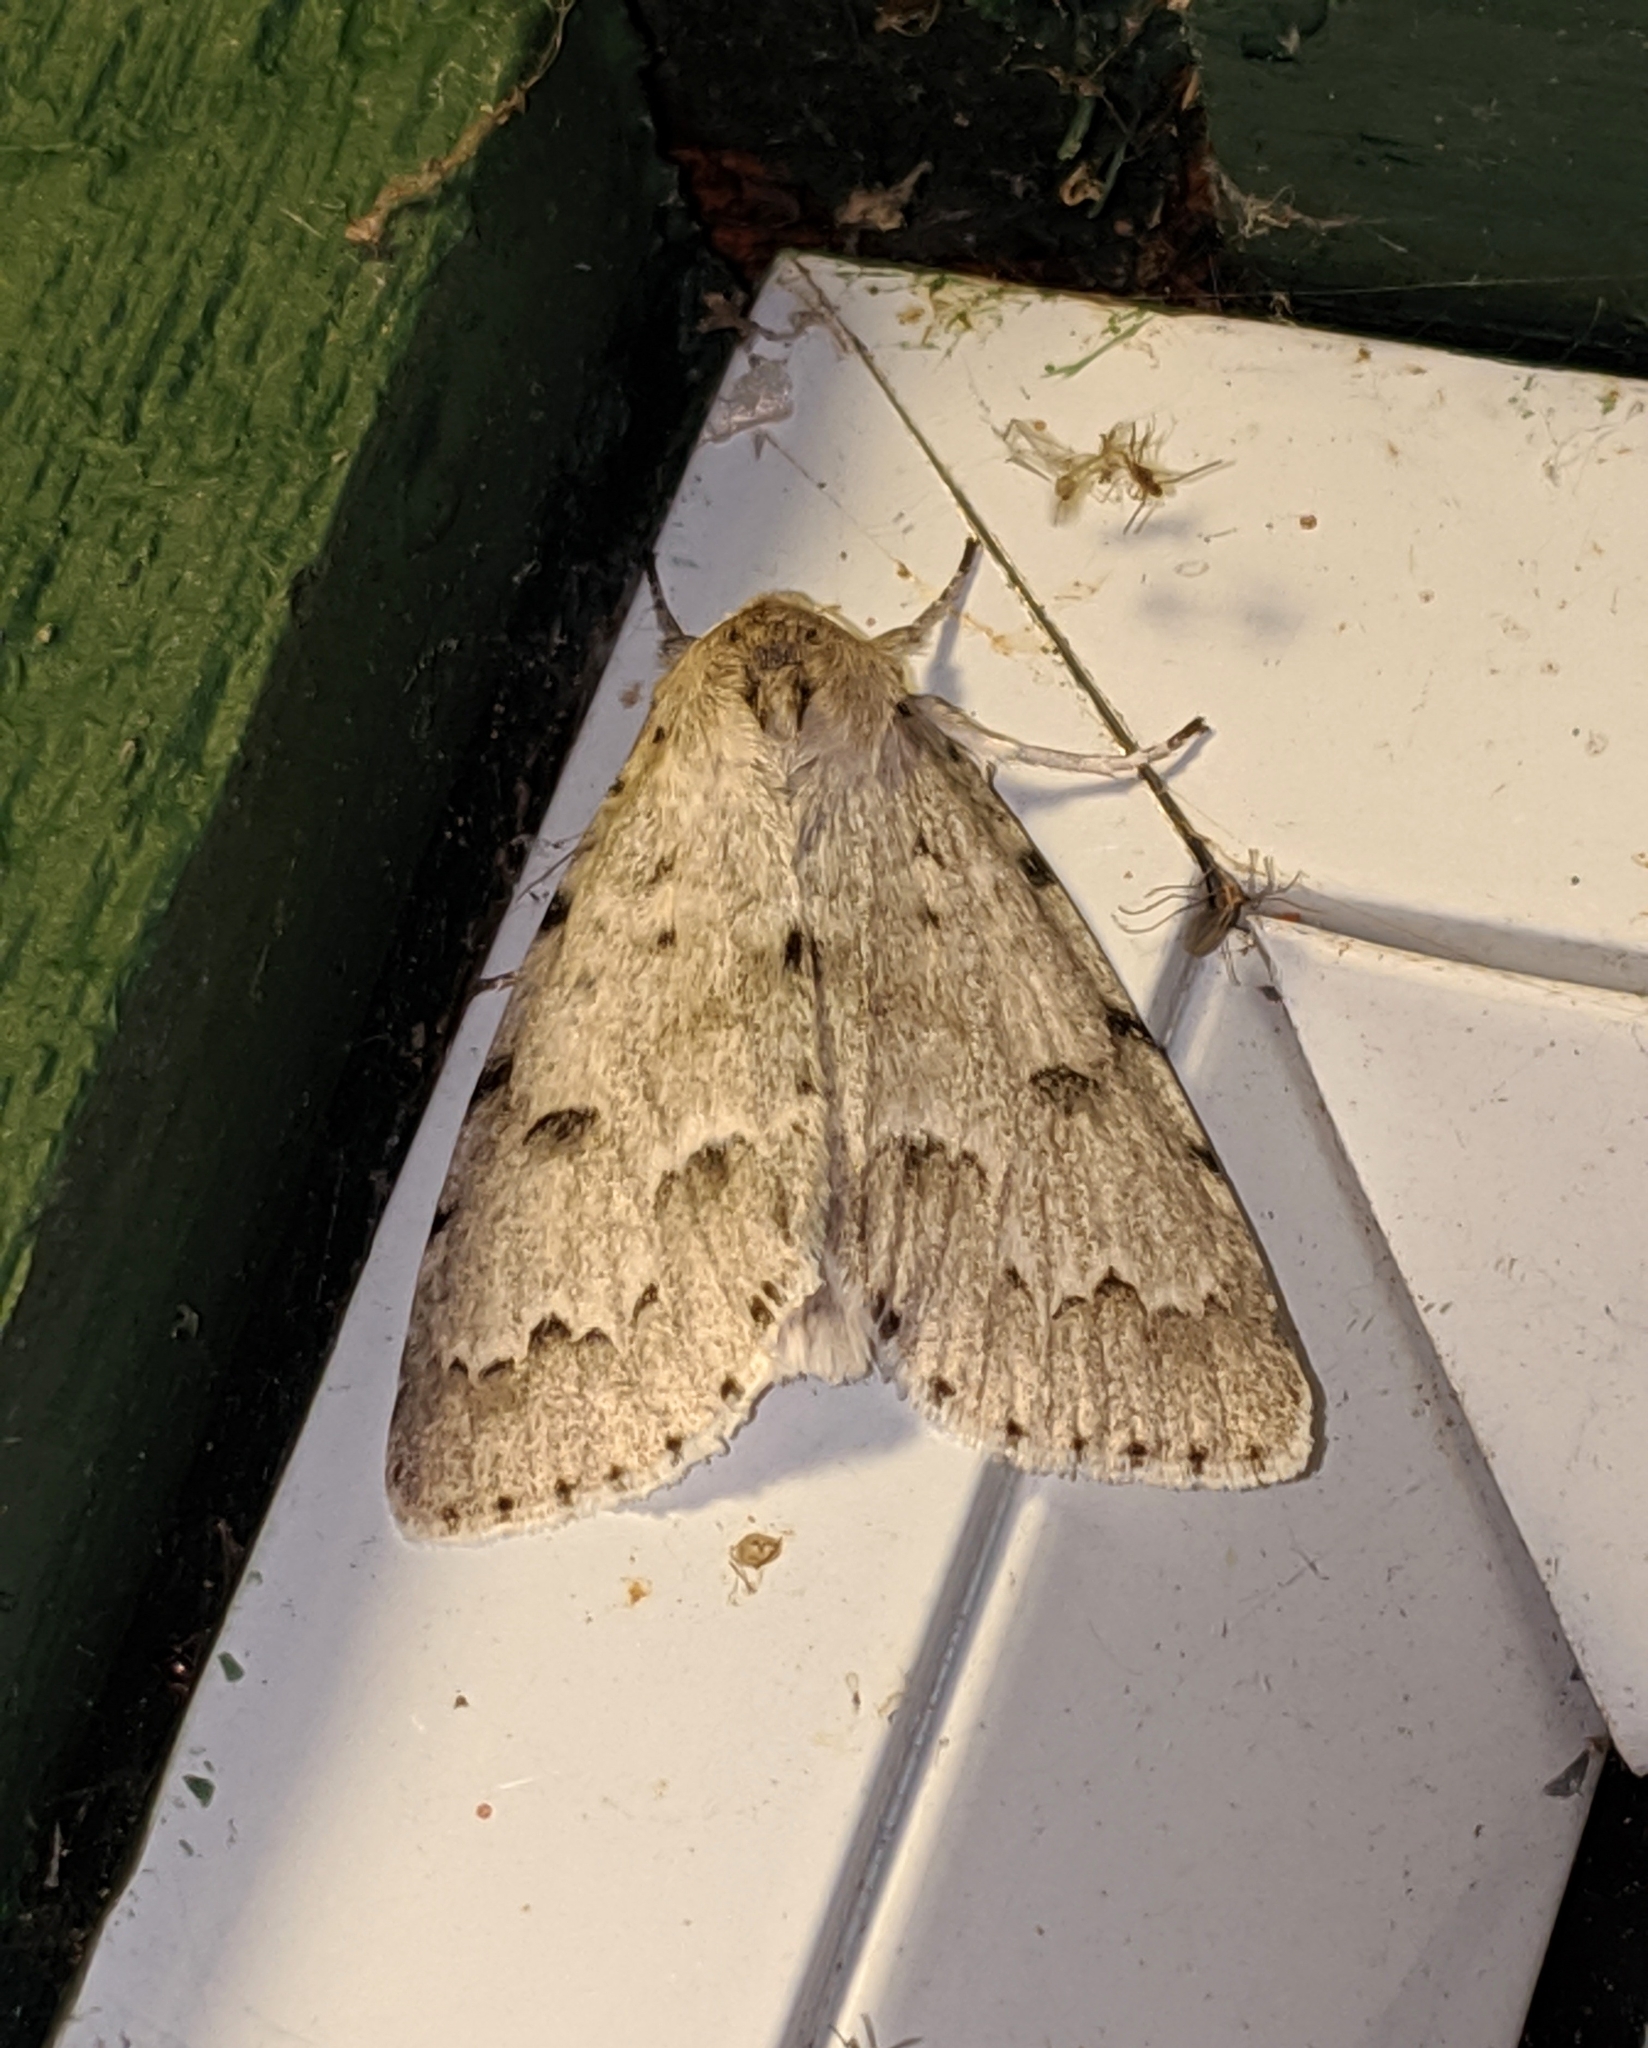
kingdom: Animalia
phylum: Arthropoda
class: Insecta
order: Lepidoptera
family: Noctuidae
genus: Acronicta
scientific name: Acronicta innotata
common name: Unmarked dagger
